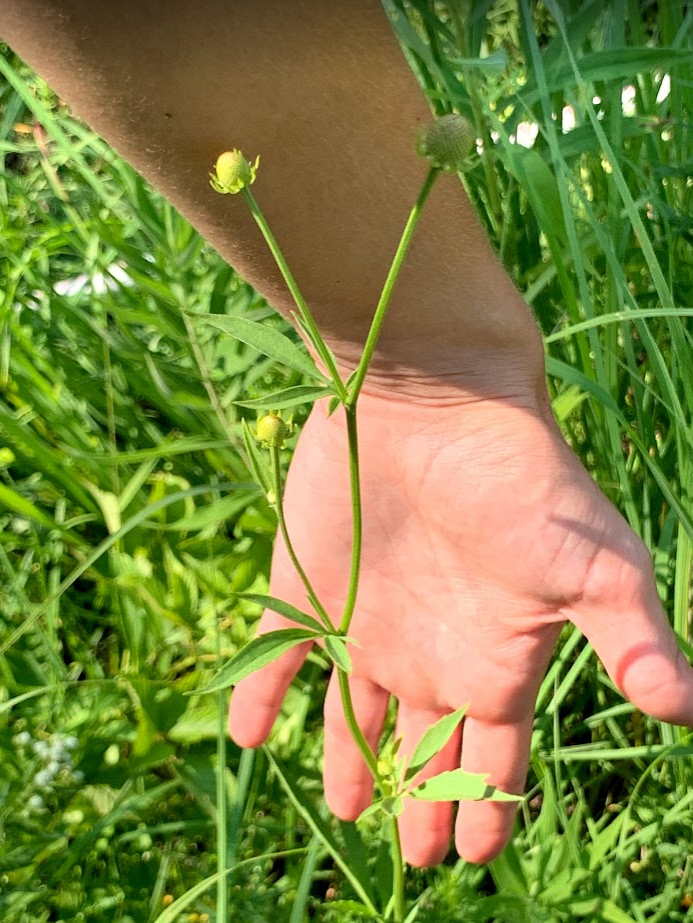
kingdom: Plantae
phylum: Tracheophyta
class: Magnoliopsida
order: Asterales
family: Asteraceae
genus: Ratibida
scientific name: Ratibida pinnata
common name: Drooping prairie-coneflower
